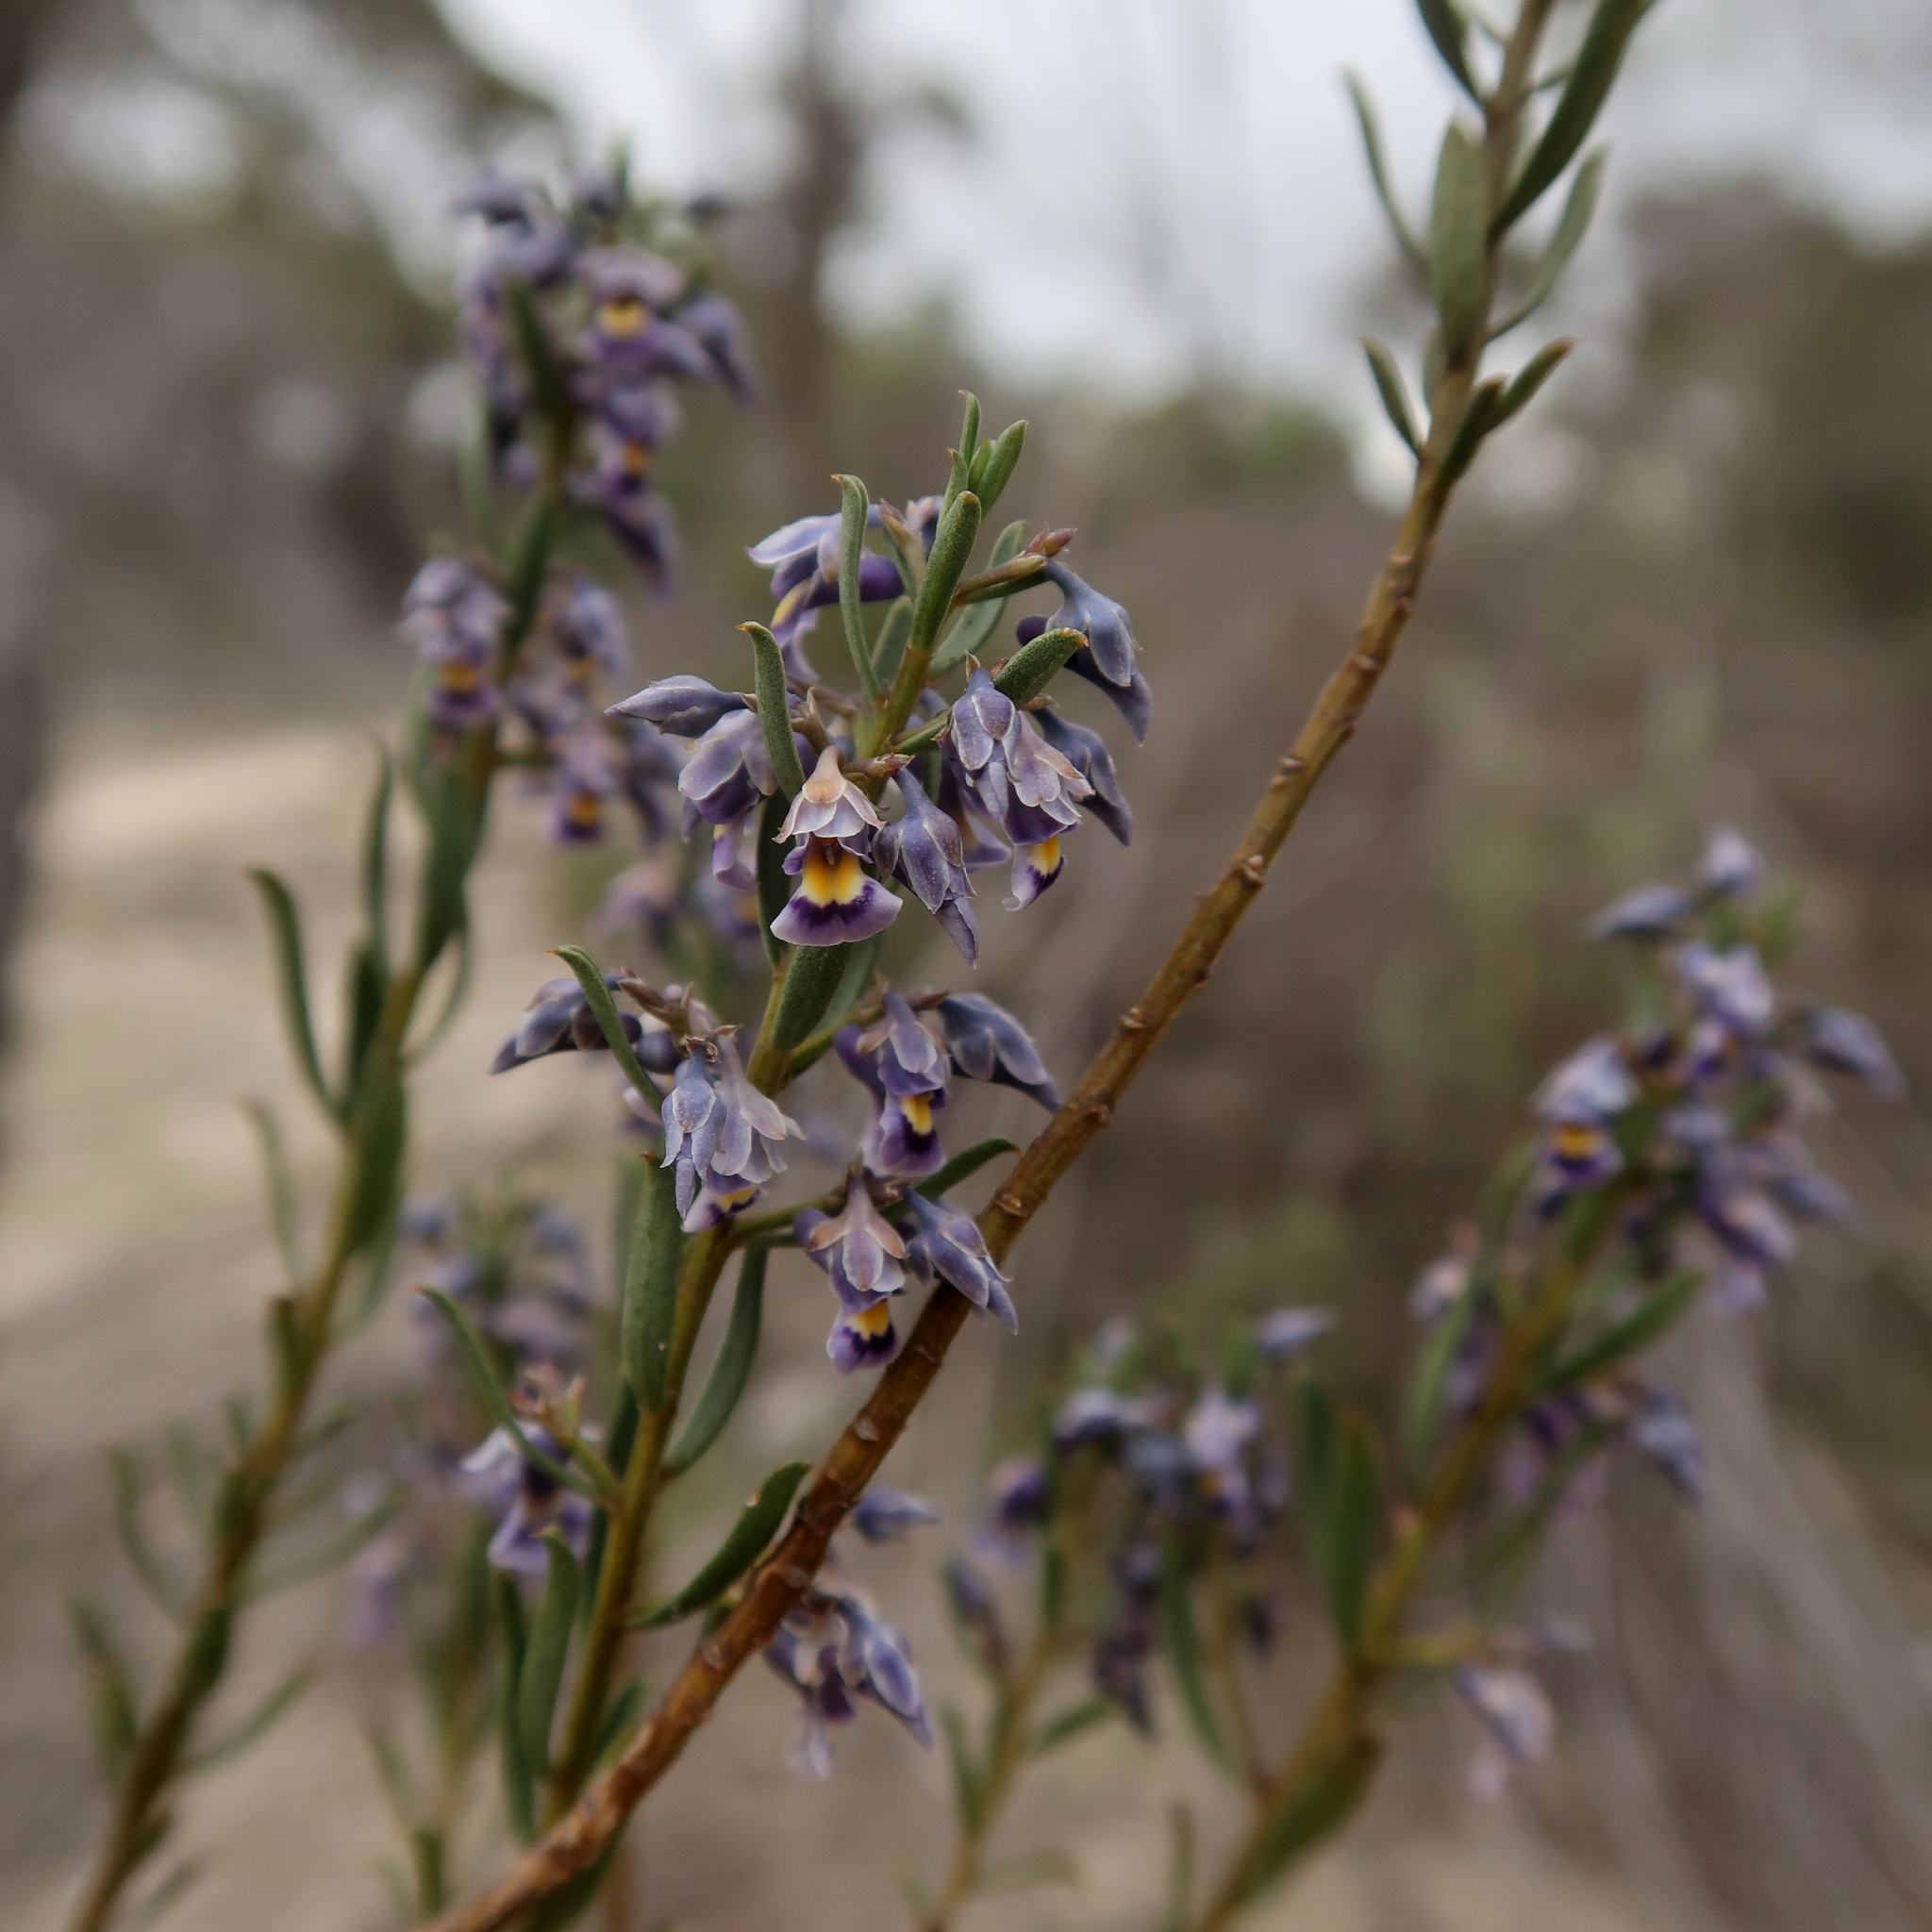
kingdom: Plantae
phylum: Tracheophyta
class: Magnoliopsida
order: Malpighiales
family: Violaceae
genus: Pigea
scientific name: Pigea floribunda
